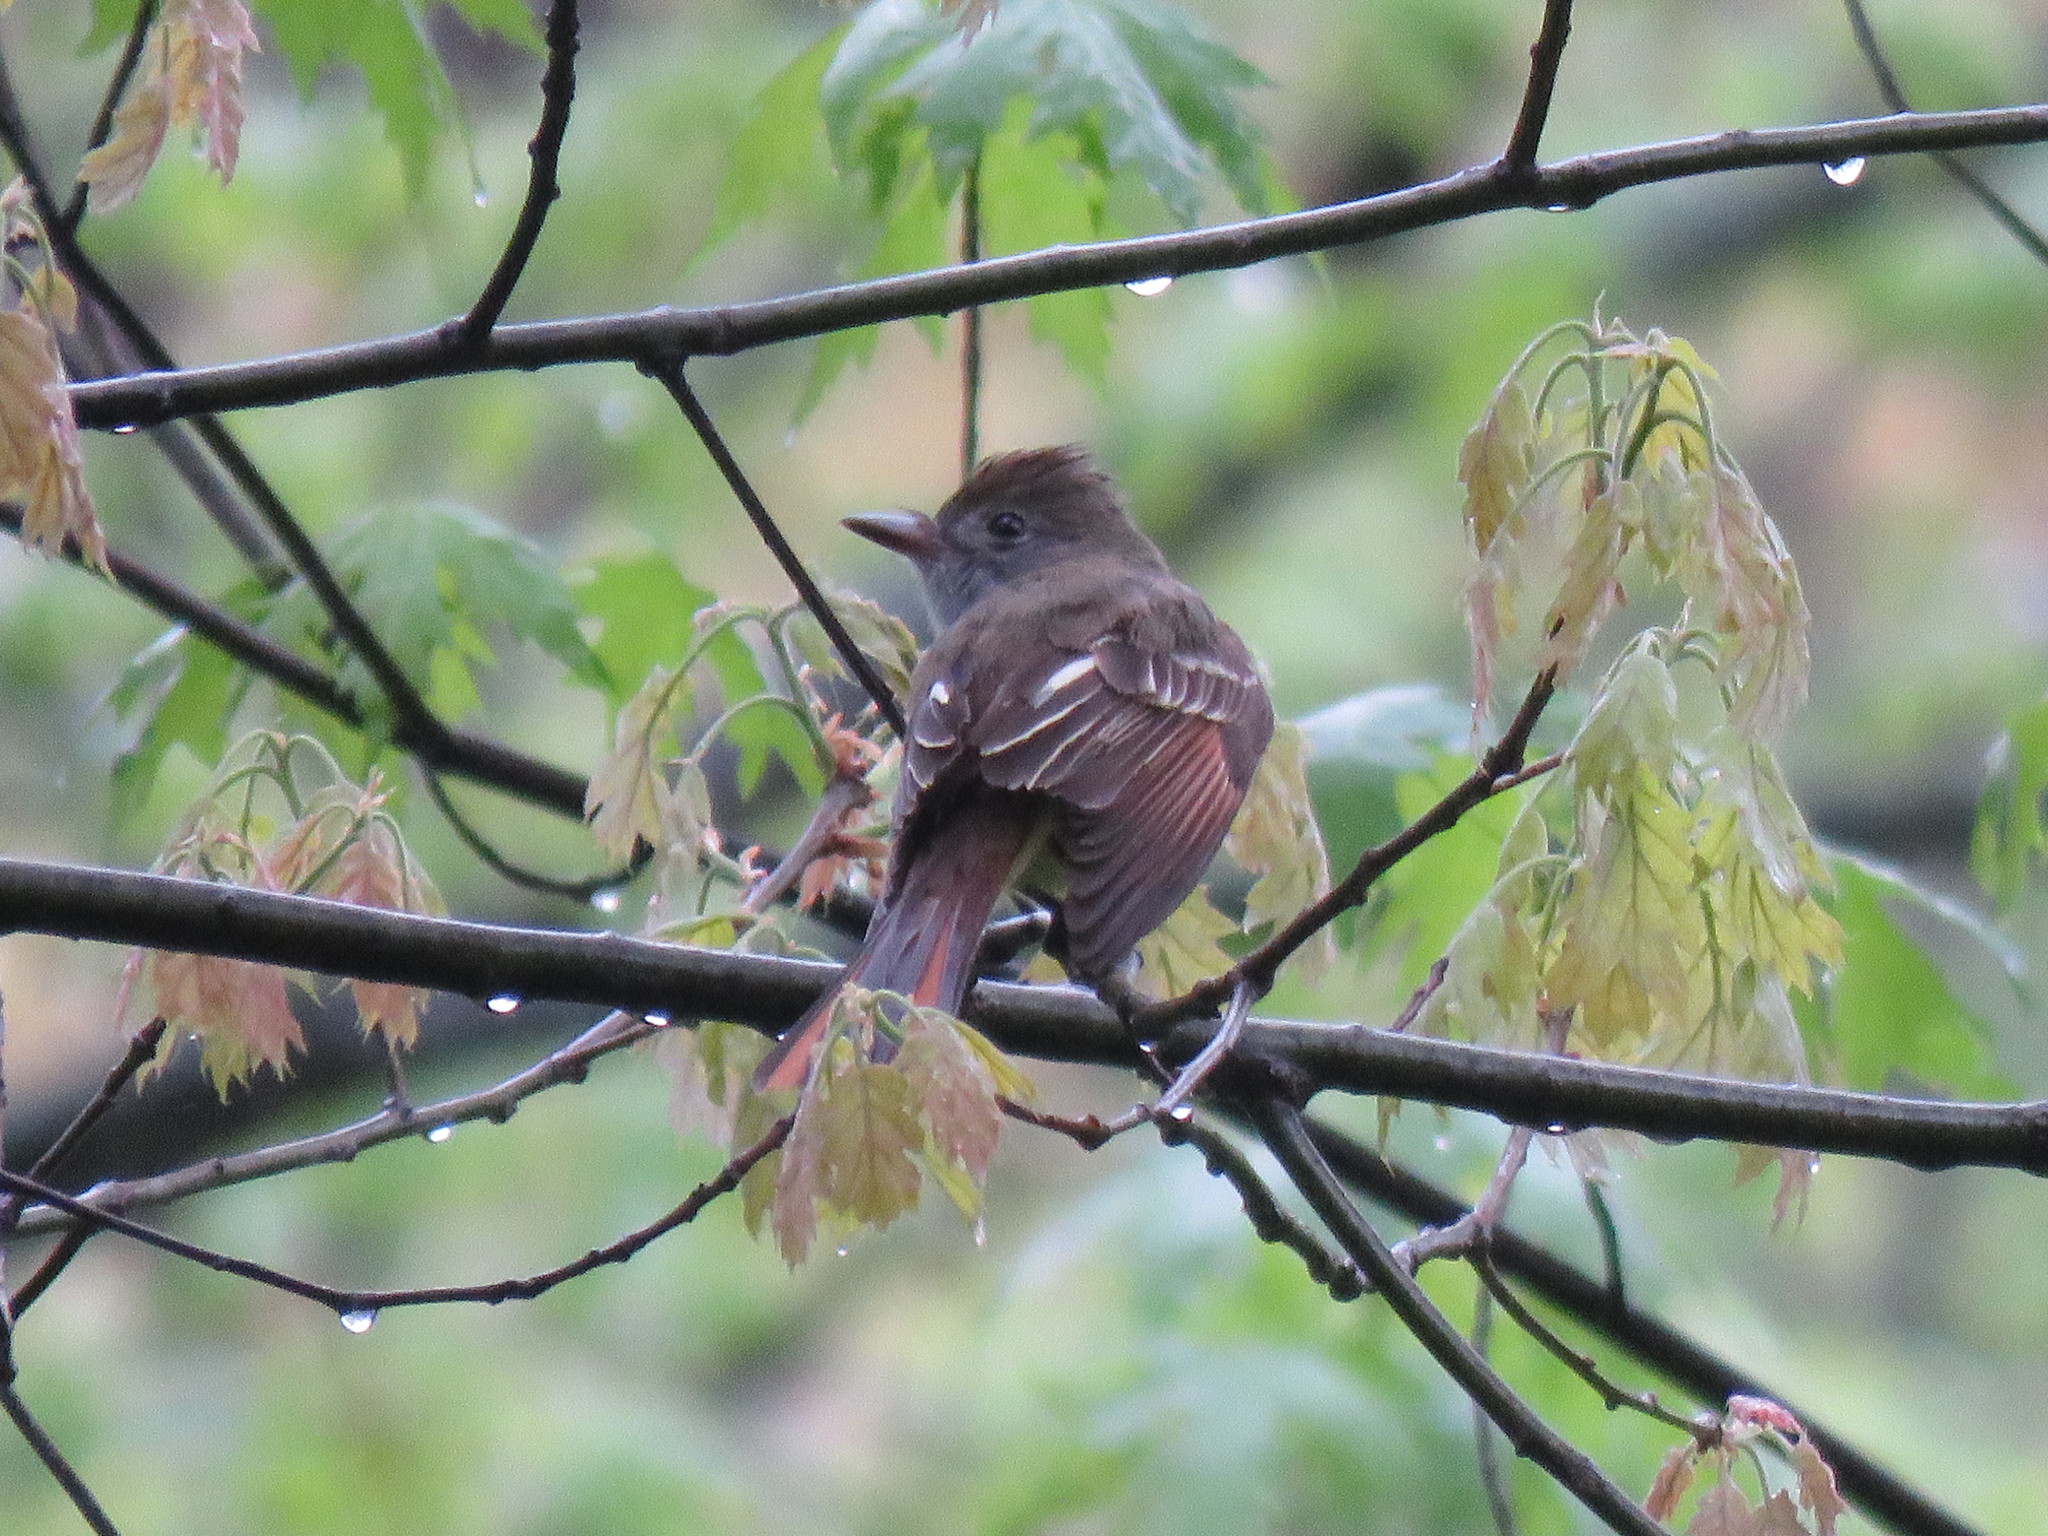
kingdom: Animalia
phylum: Chordata
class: Aves
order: Passeriformes
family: Tyrannidae
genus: Myiarchus
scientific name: Myiarchus crinitus
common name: Great crested flycatcher
